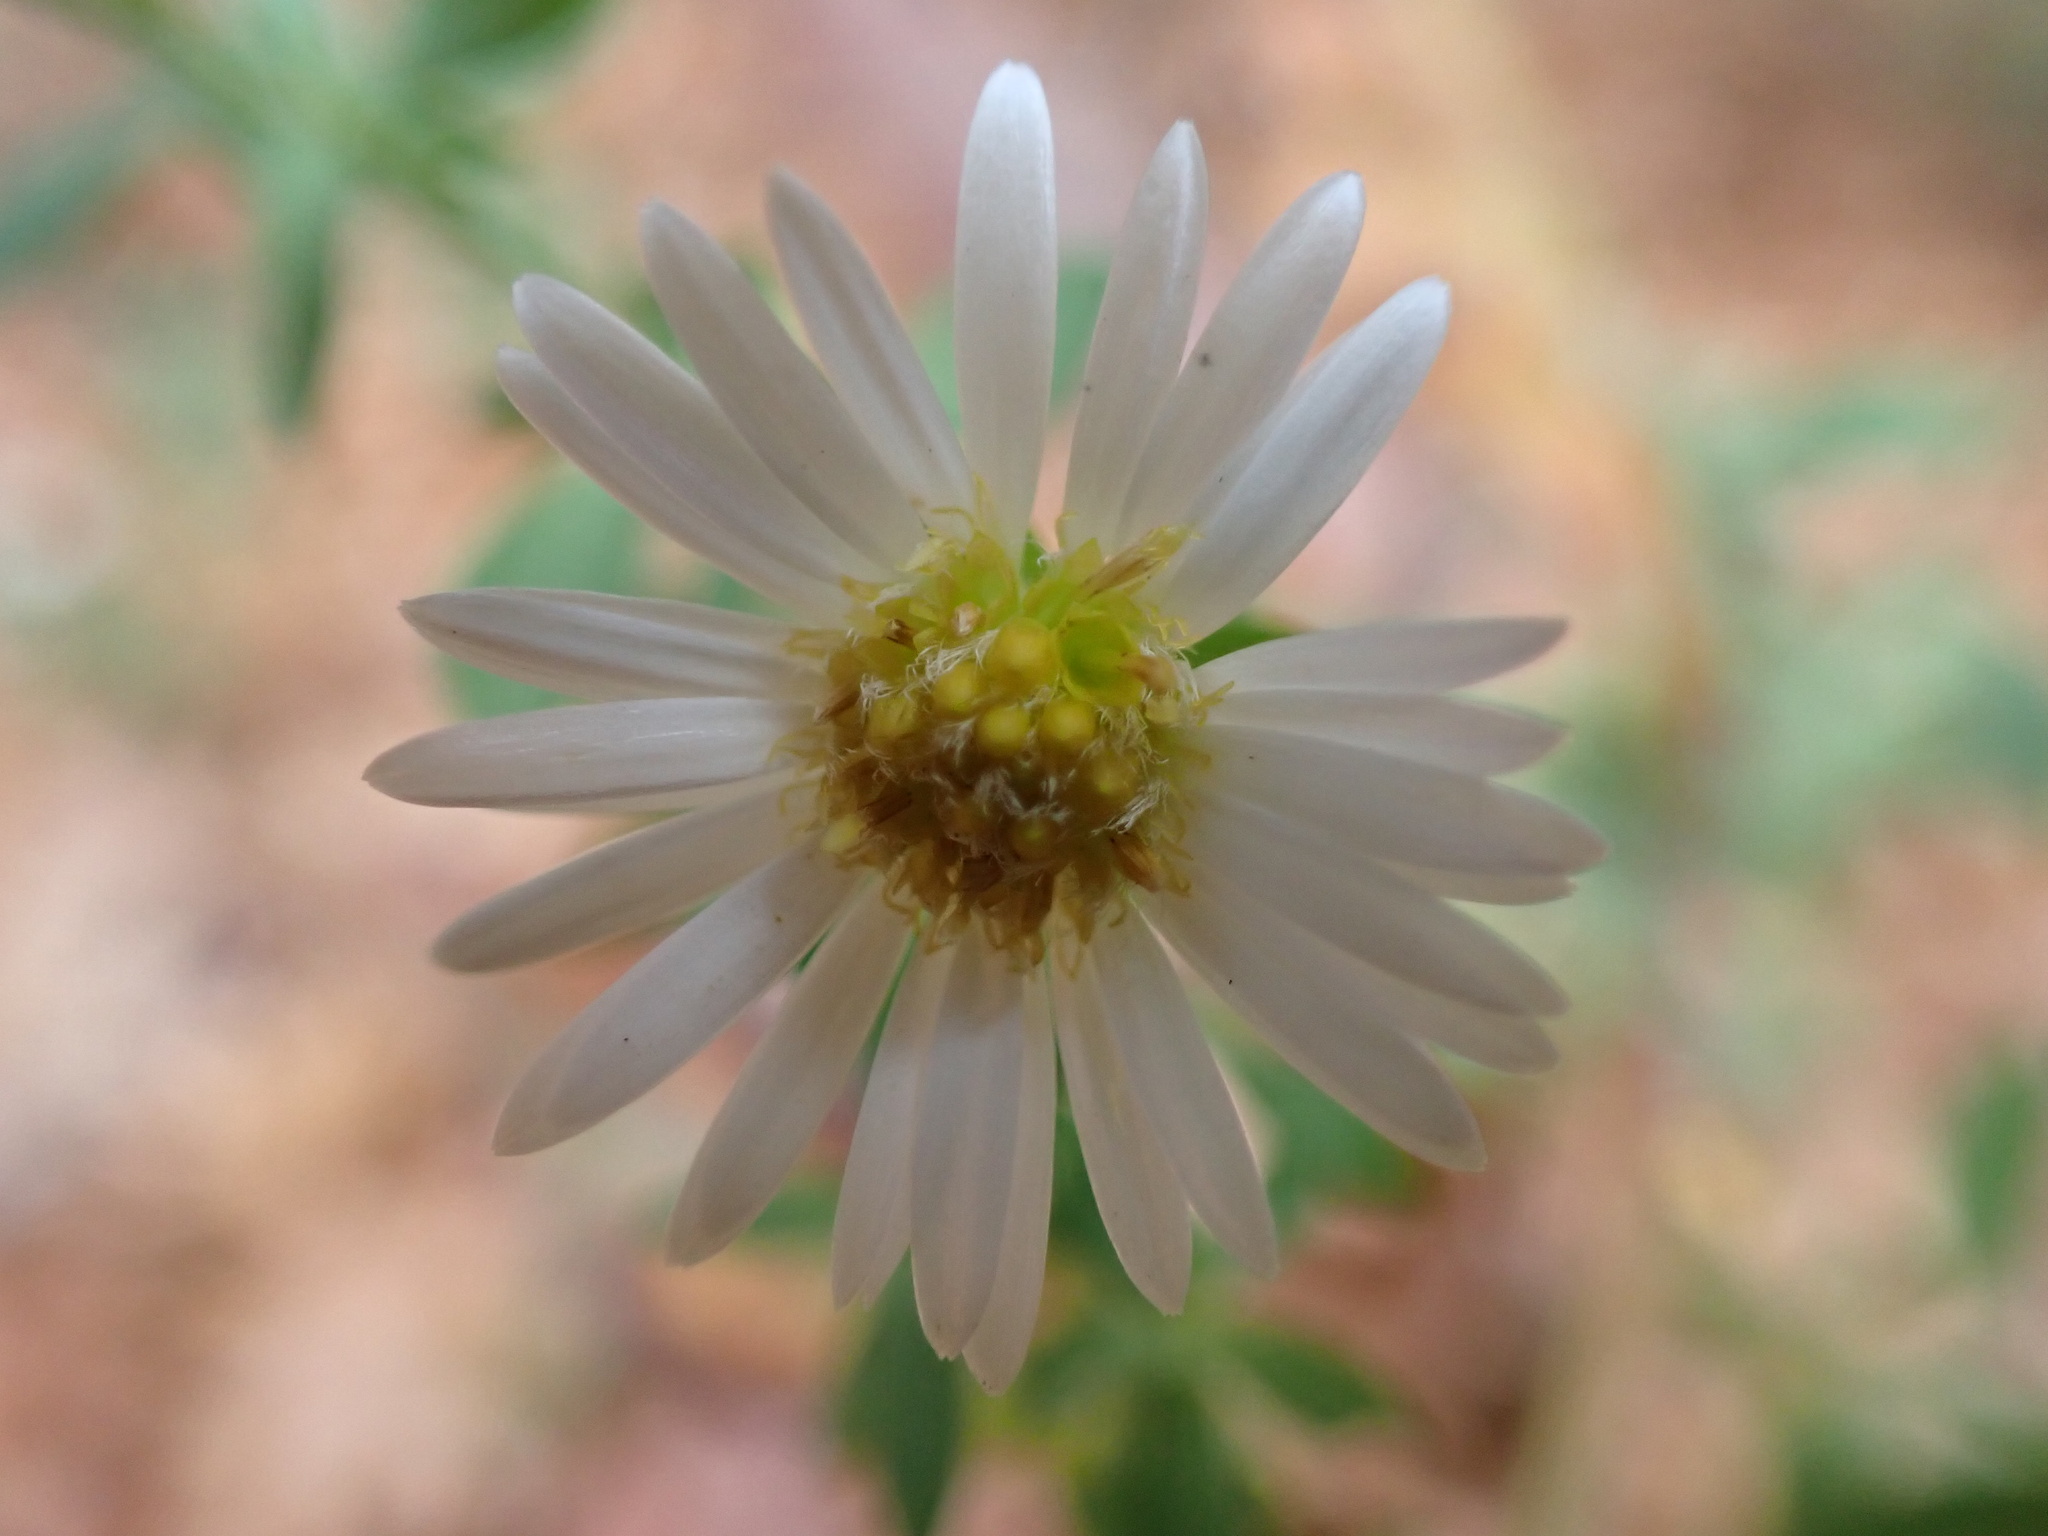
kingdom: Plantae
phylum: Tracheophyta
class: Magnoliopsida
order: Asterales
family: Asteraceae
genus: Symphyotrichum
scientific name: Symphyotrichum lanceolatum
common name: Panicled aster
